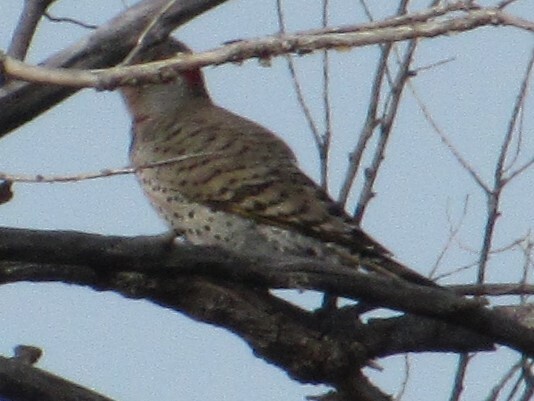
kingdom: Animalia
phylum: Chordata
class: Aves
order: Piciformes
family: Picidae
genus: Colaptes
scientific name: Colaptes auratus
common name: Northern flicker
